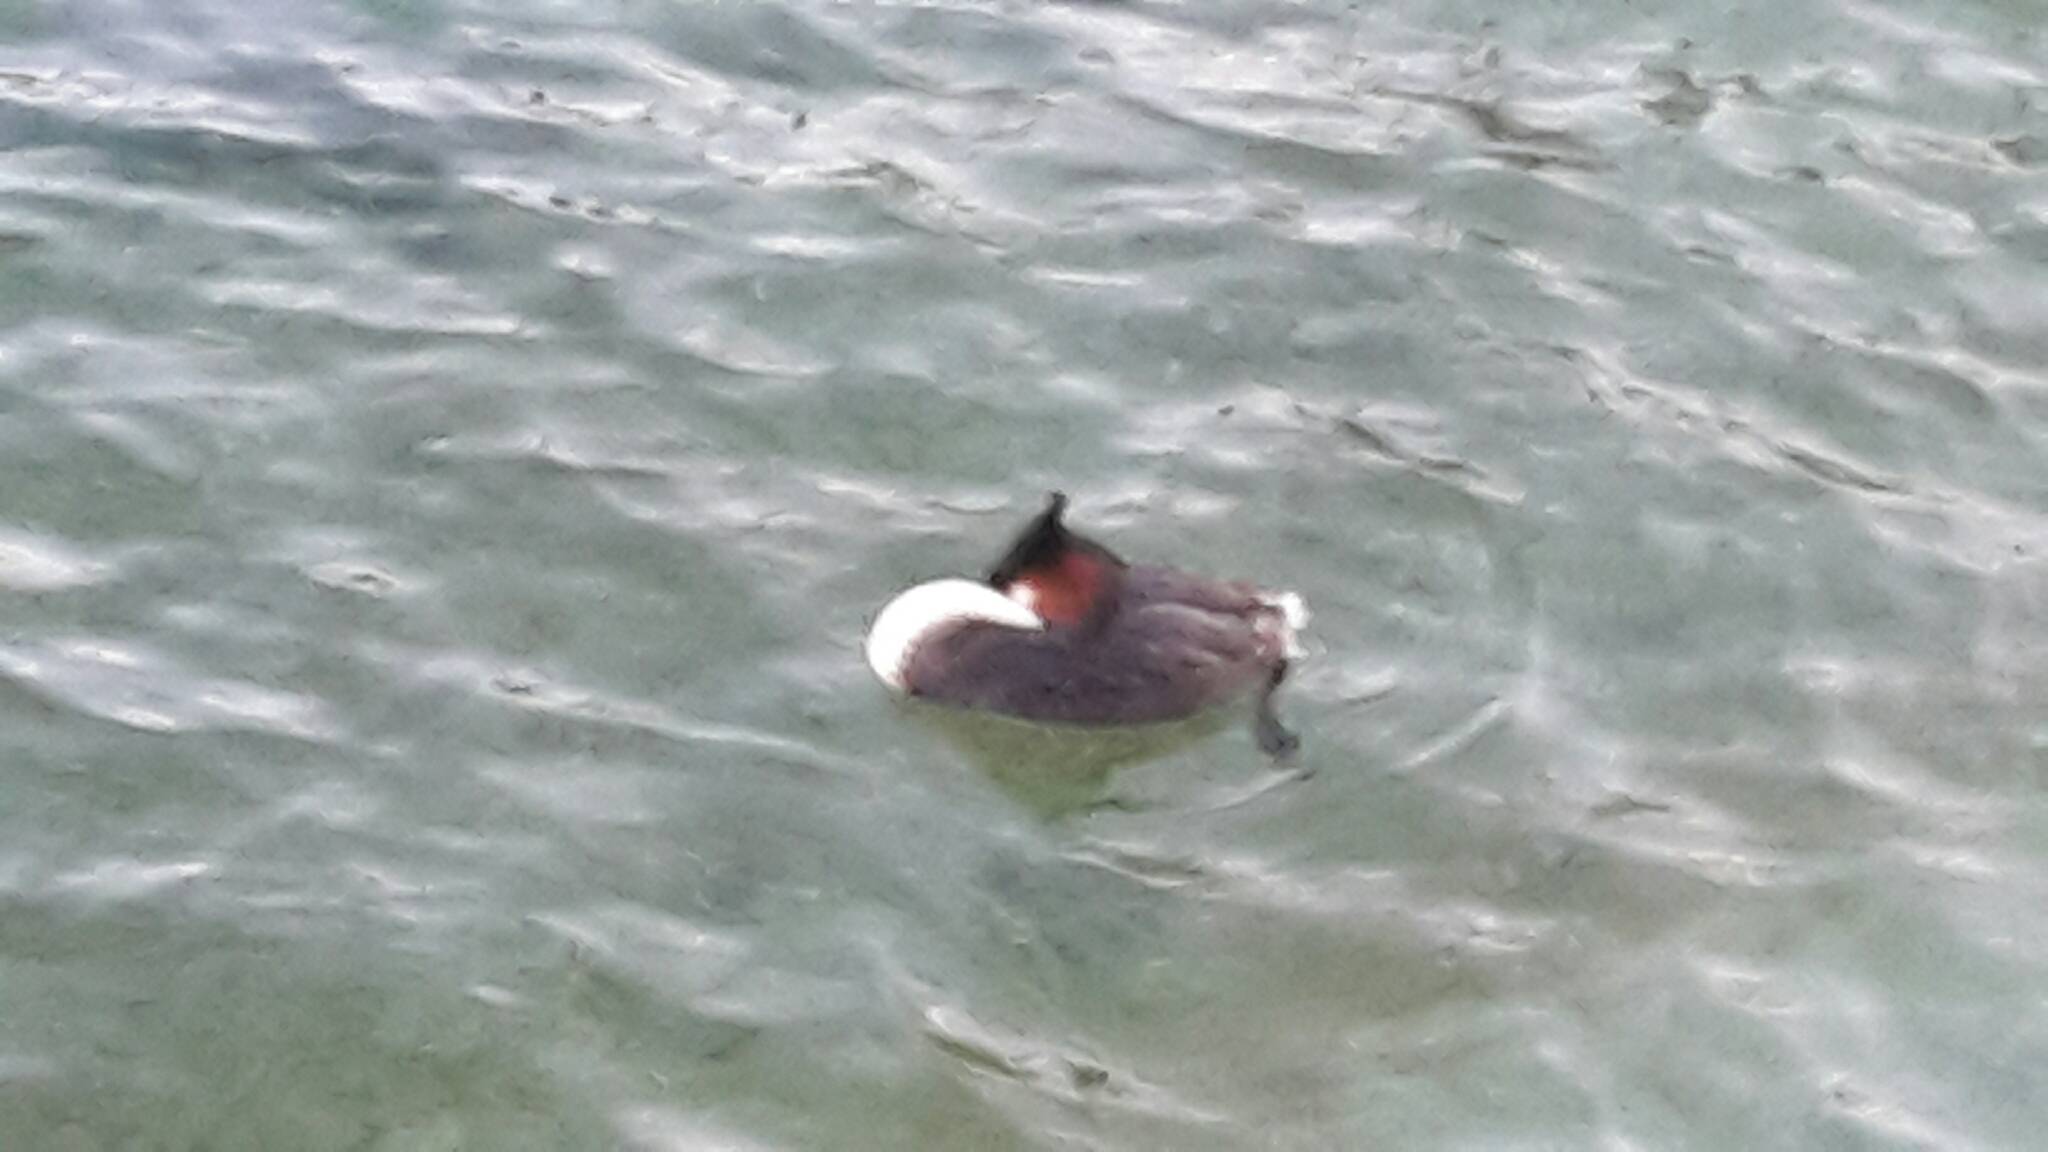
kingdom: Animalia
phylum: Chordata
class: Aves
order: Podicipediformes
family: Podicipedidae
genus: Podiceps
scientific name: Podiceps cristatus
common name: Great crested grebe
